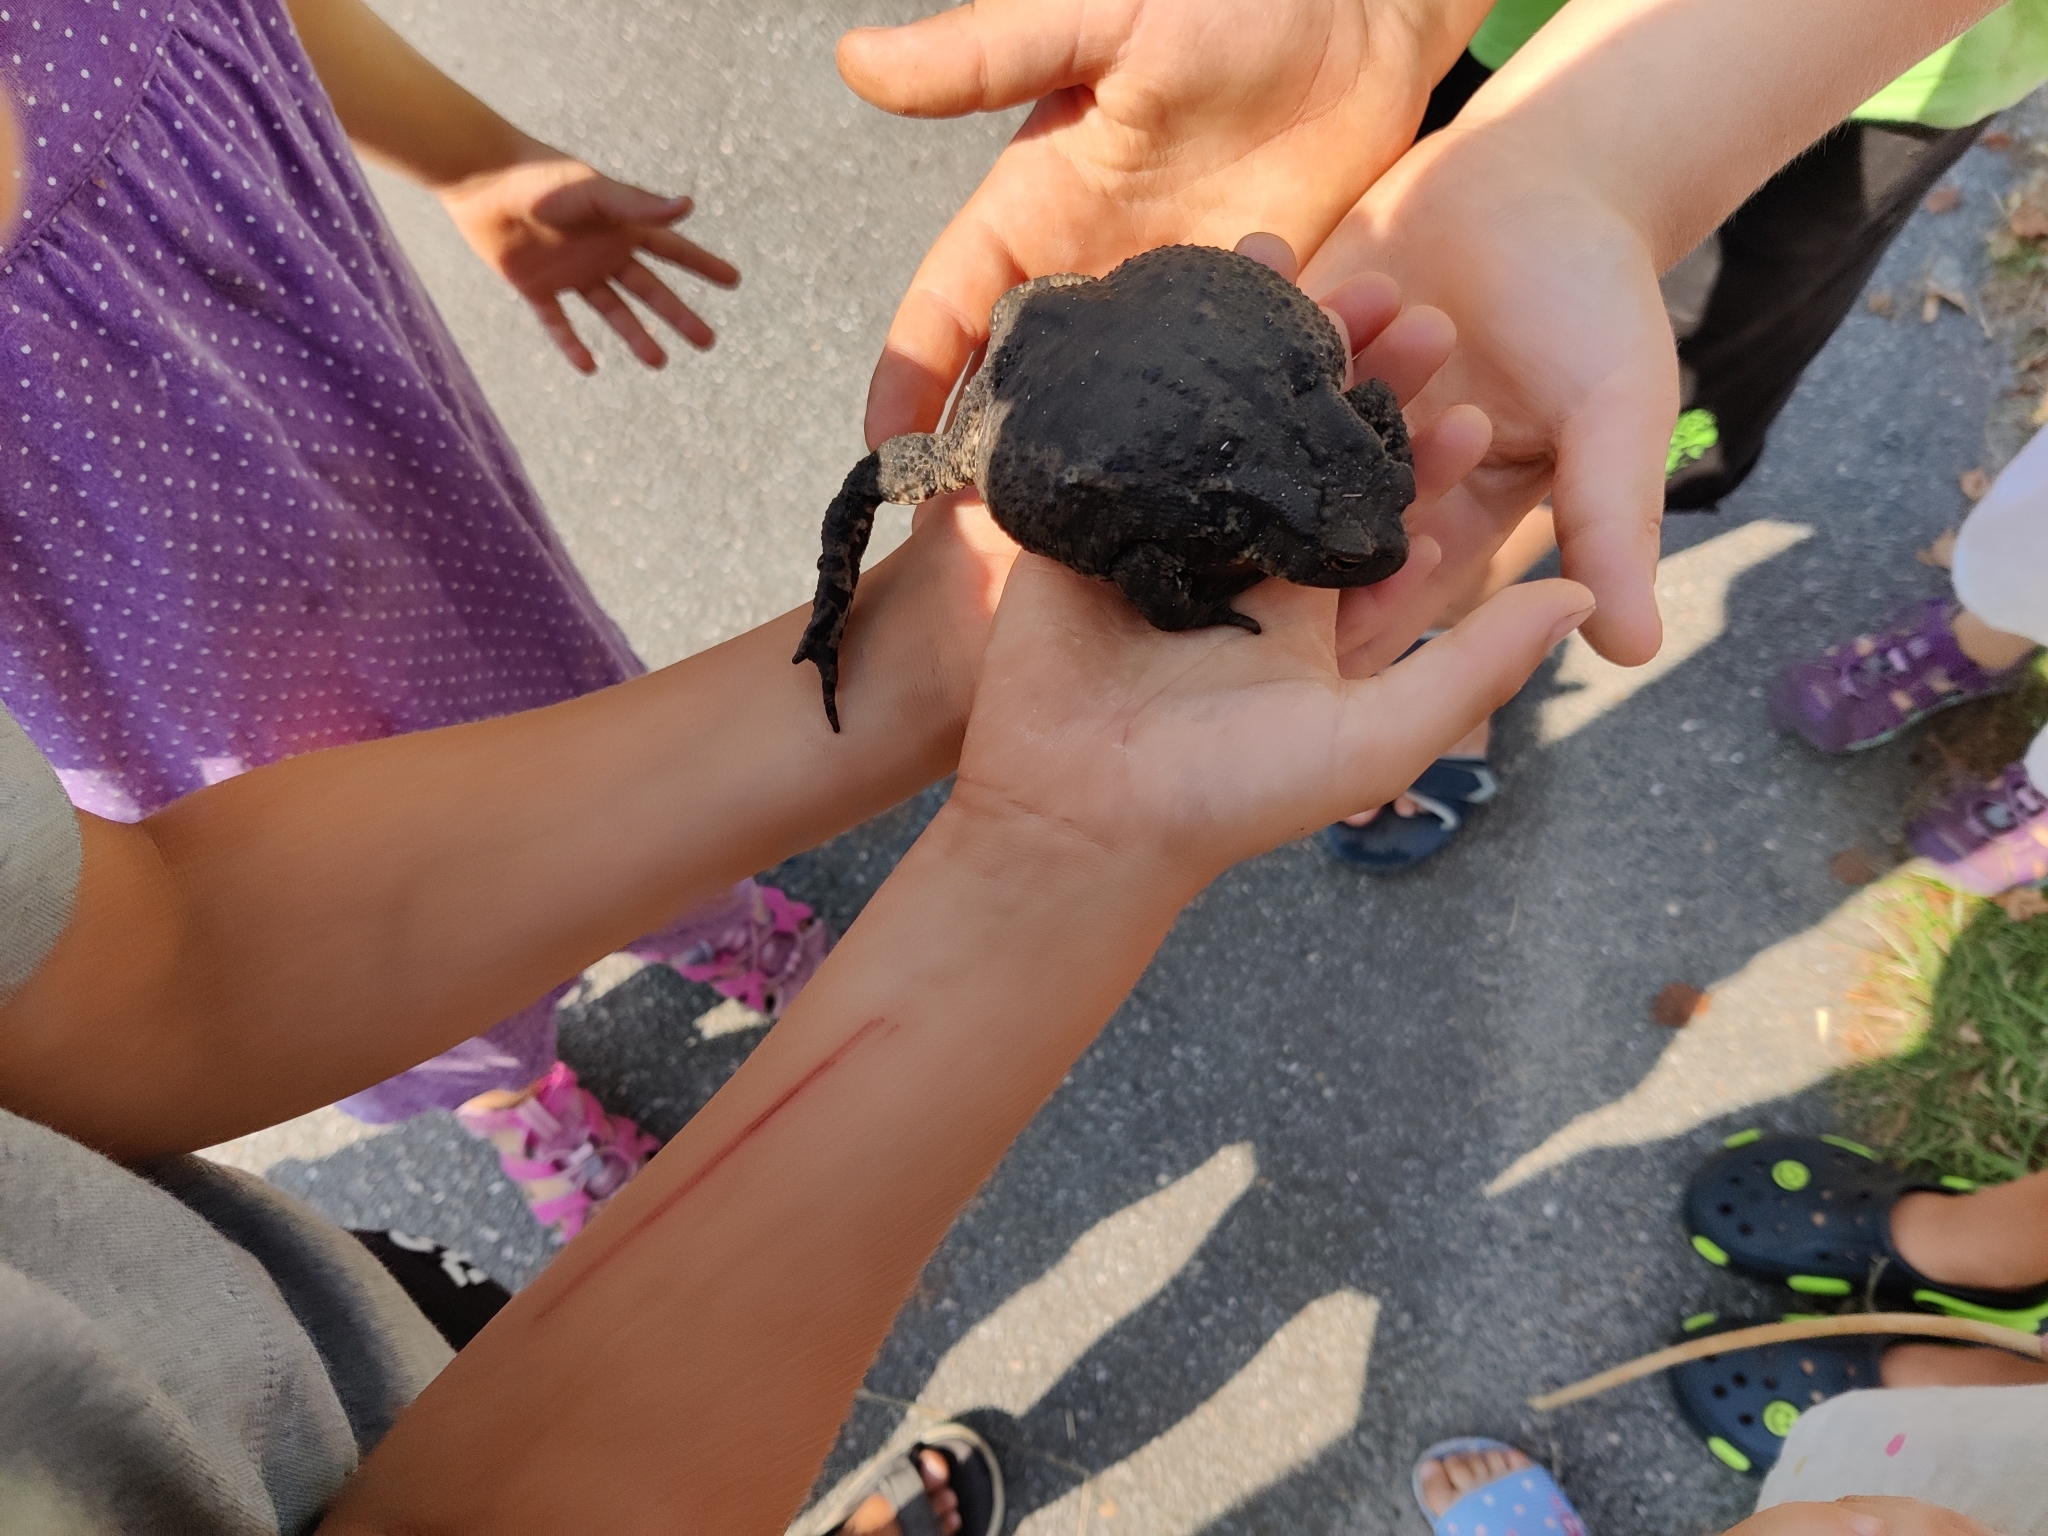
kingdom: Animalia
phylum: Chordata
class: Amphibia
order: Anura
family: Bufonidae
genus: Bufo
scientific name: Bufo bufo
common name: Common toad
